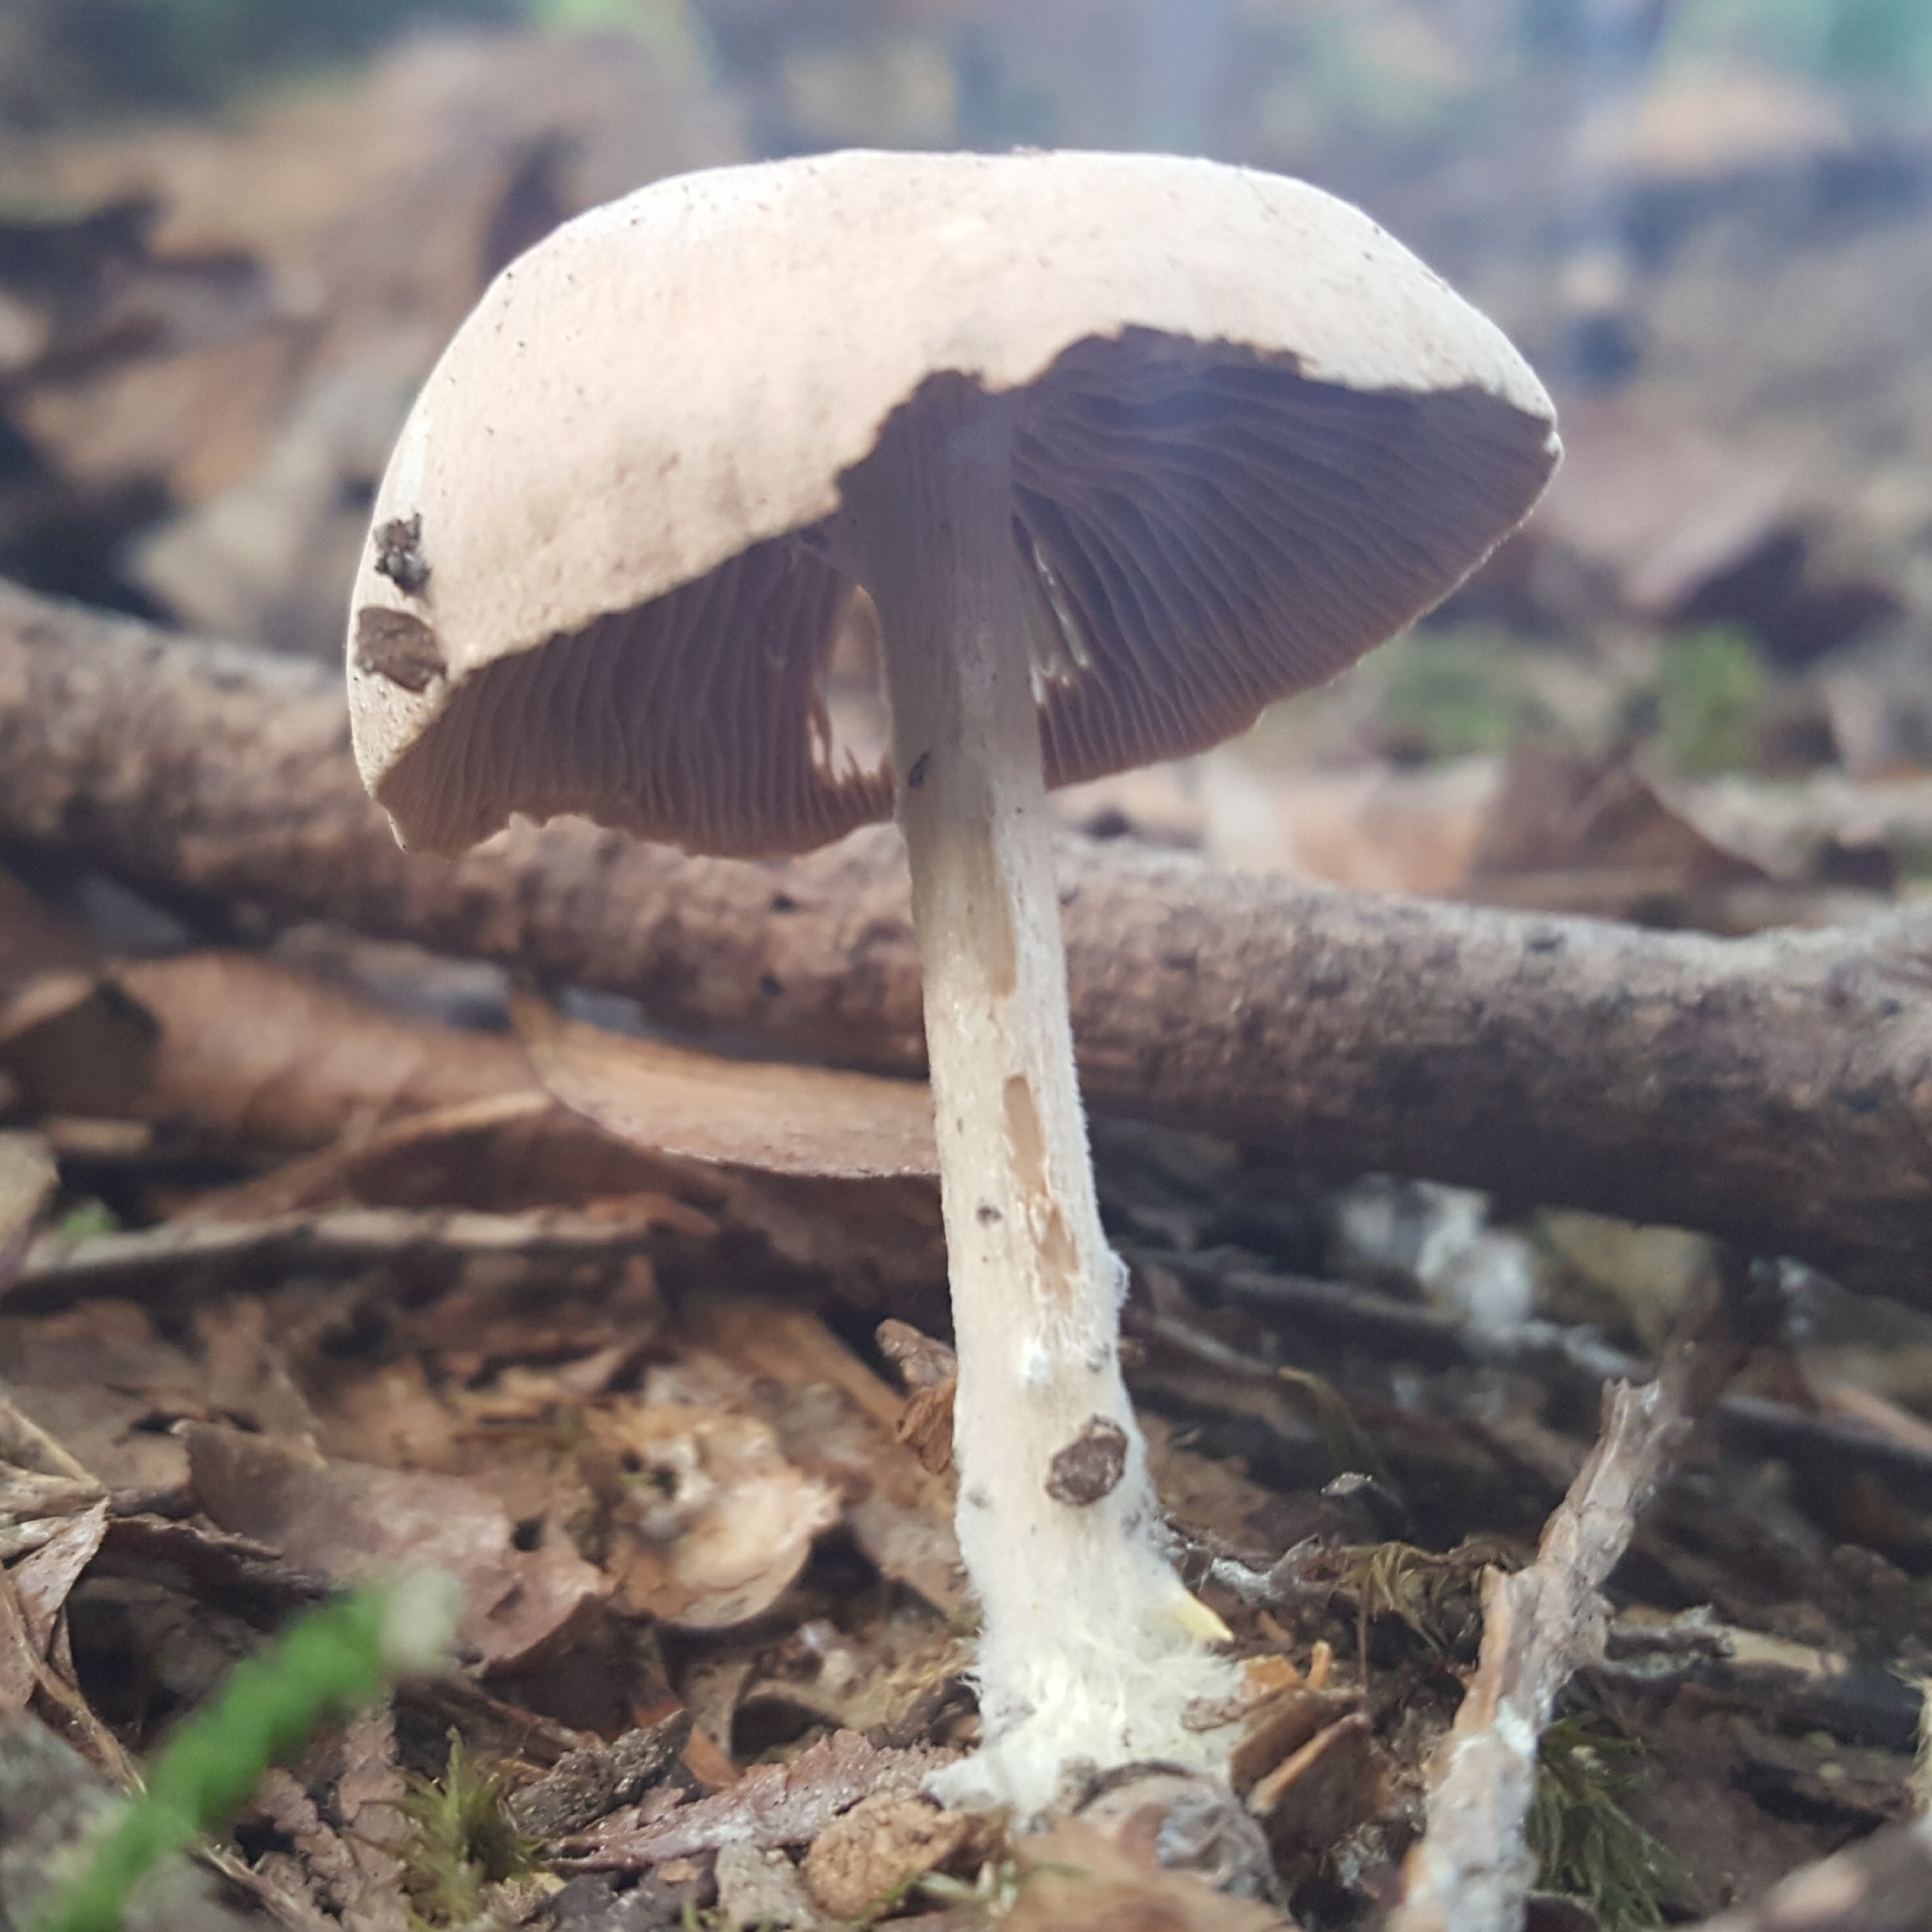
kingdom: Fungi
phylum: Basidiomycota
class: Agaricomycetes
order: Agaricales
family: Omphalotaceae
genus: Collybiopsis
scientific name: Collybiopsis peronata
